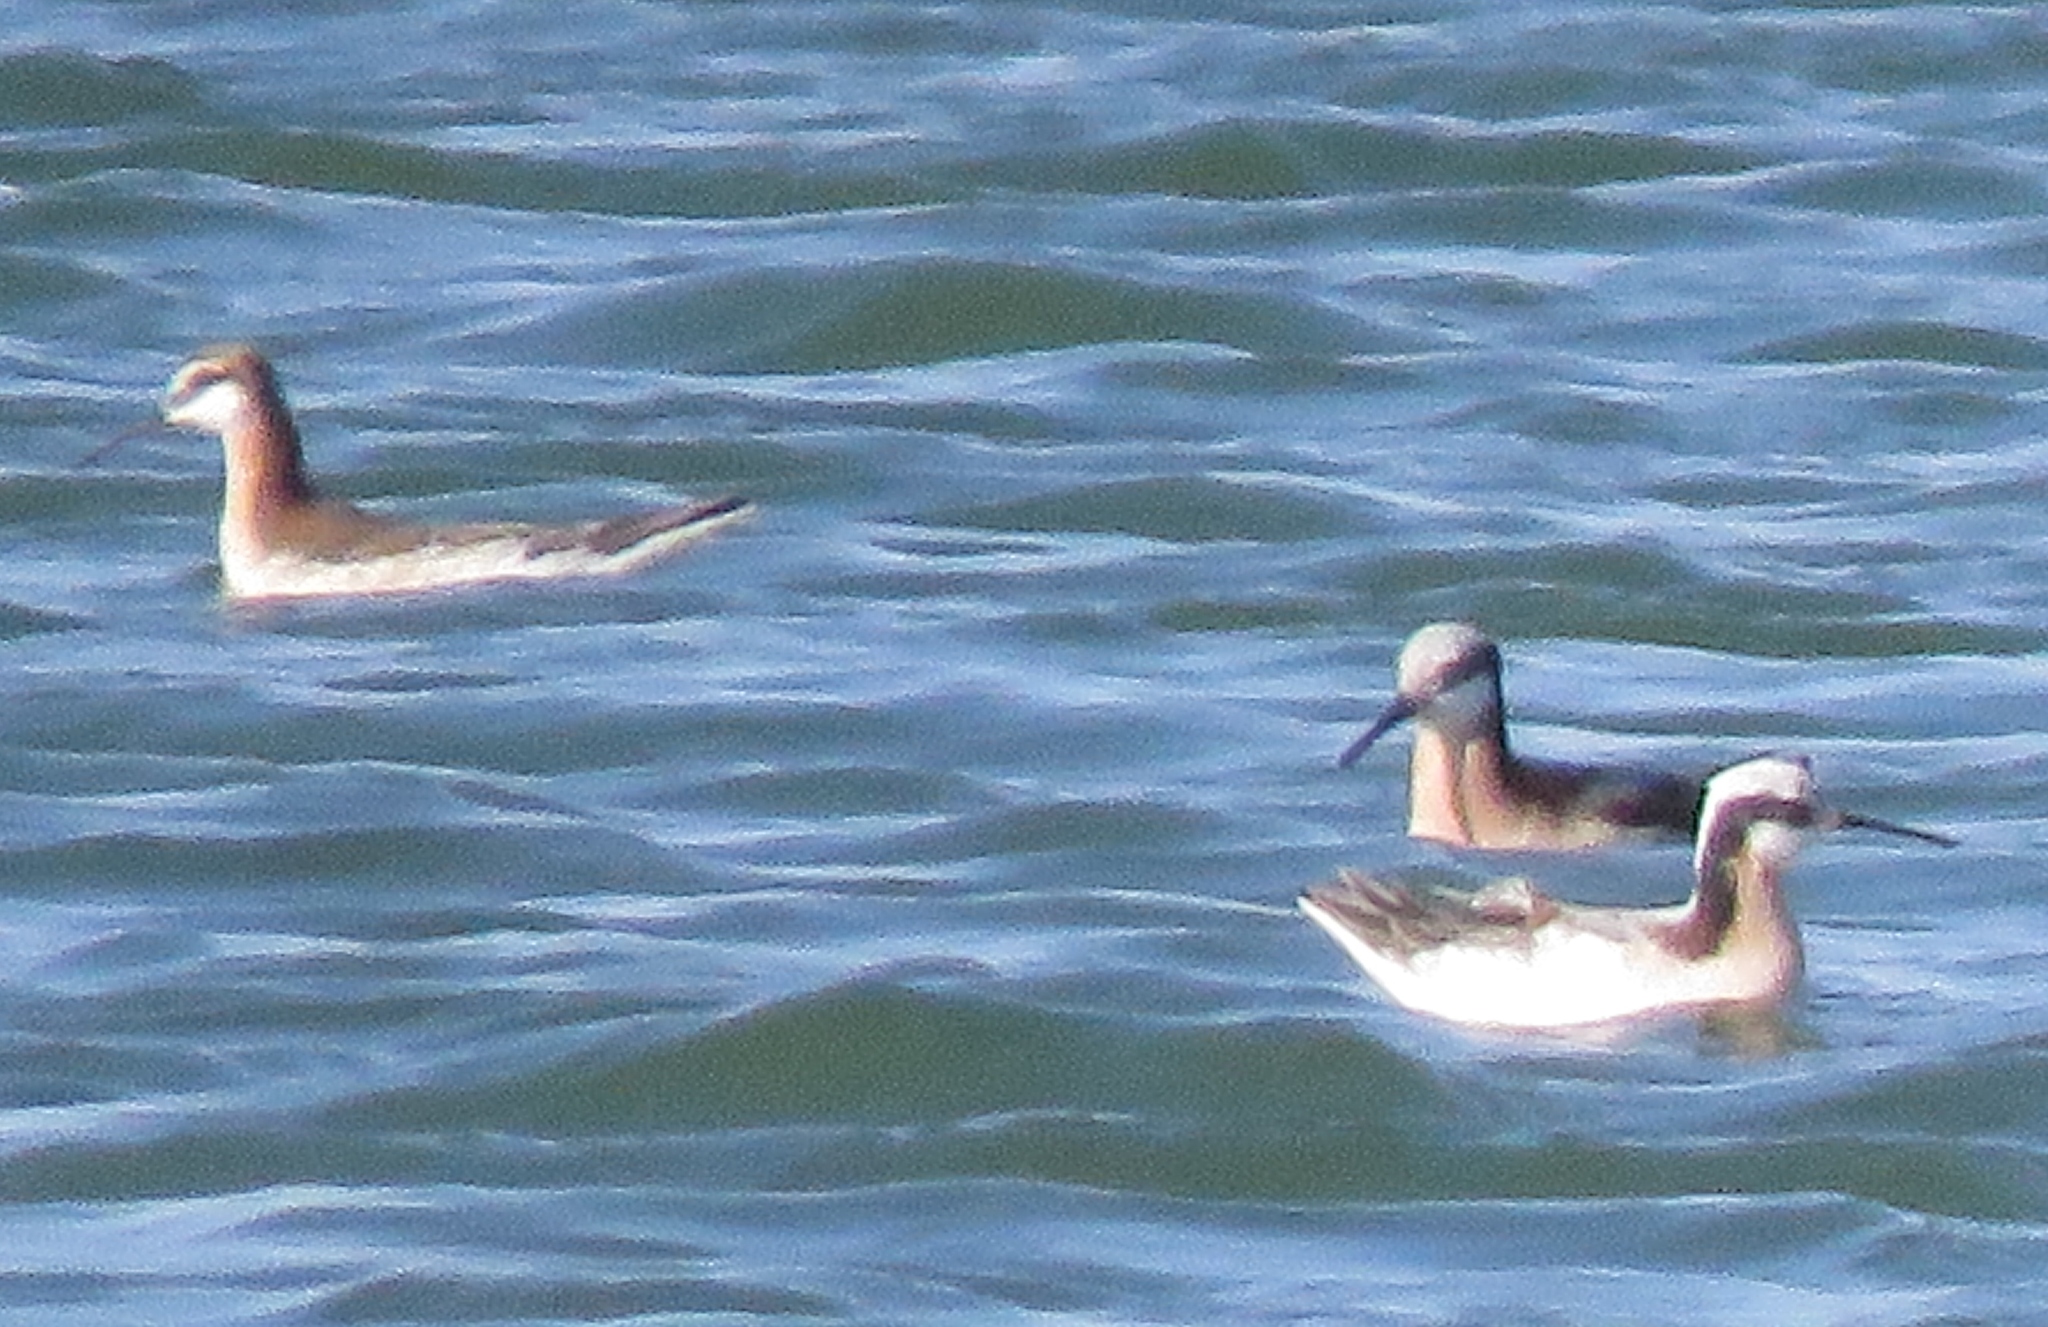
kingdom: Animalia
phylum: Chordata
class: Aves
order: Charadriiformes
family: Scolopacidae
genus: Phalaropus
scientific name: Phalaropus tricolor
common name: Wilson's phalarope
